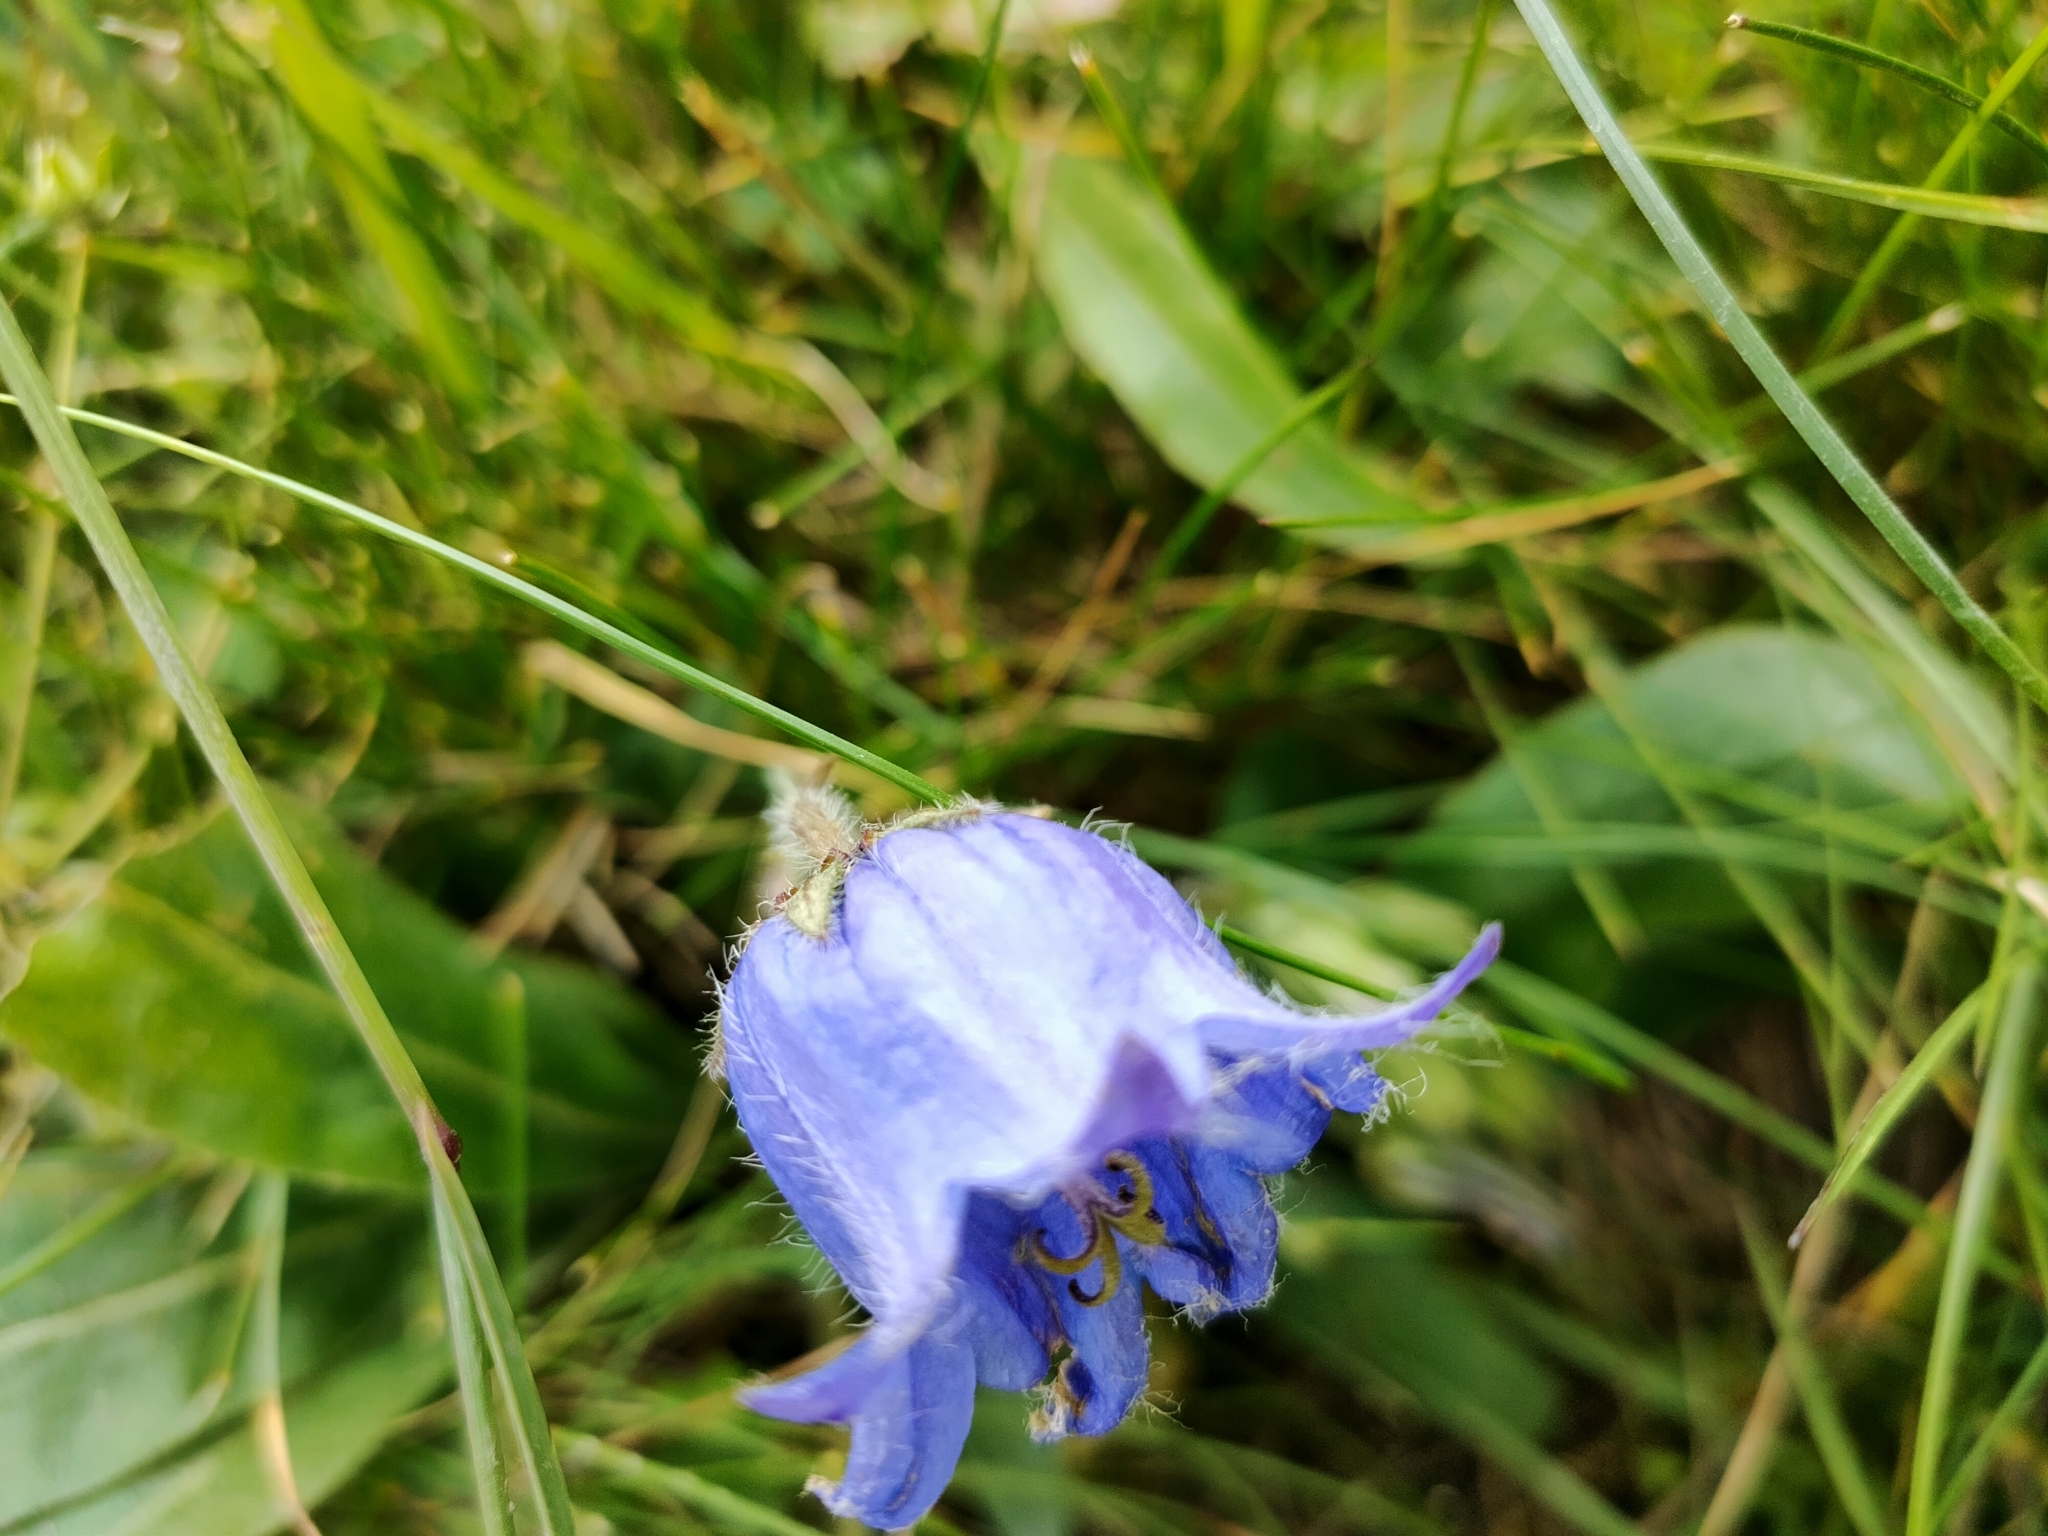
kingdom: Plantae
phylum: Tracheophyta
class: Magnoliopsida
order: Asterales
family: Campanulaceae
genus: Campanula
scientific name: Campanula barbata
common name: Bearded bellflower
